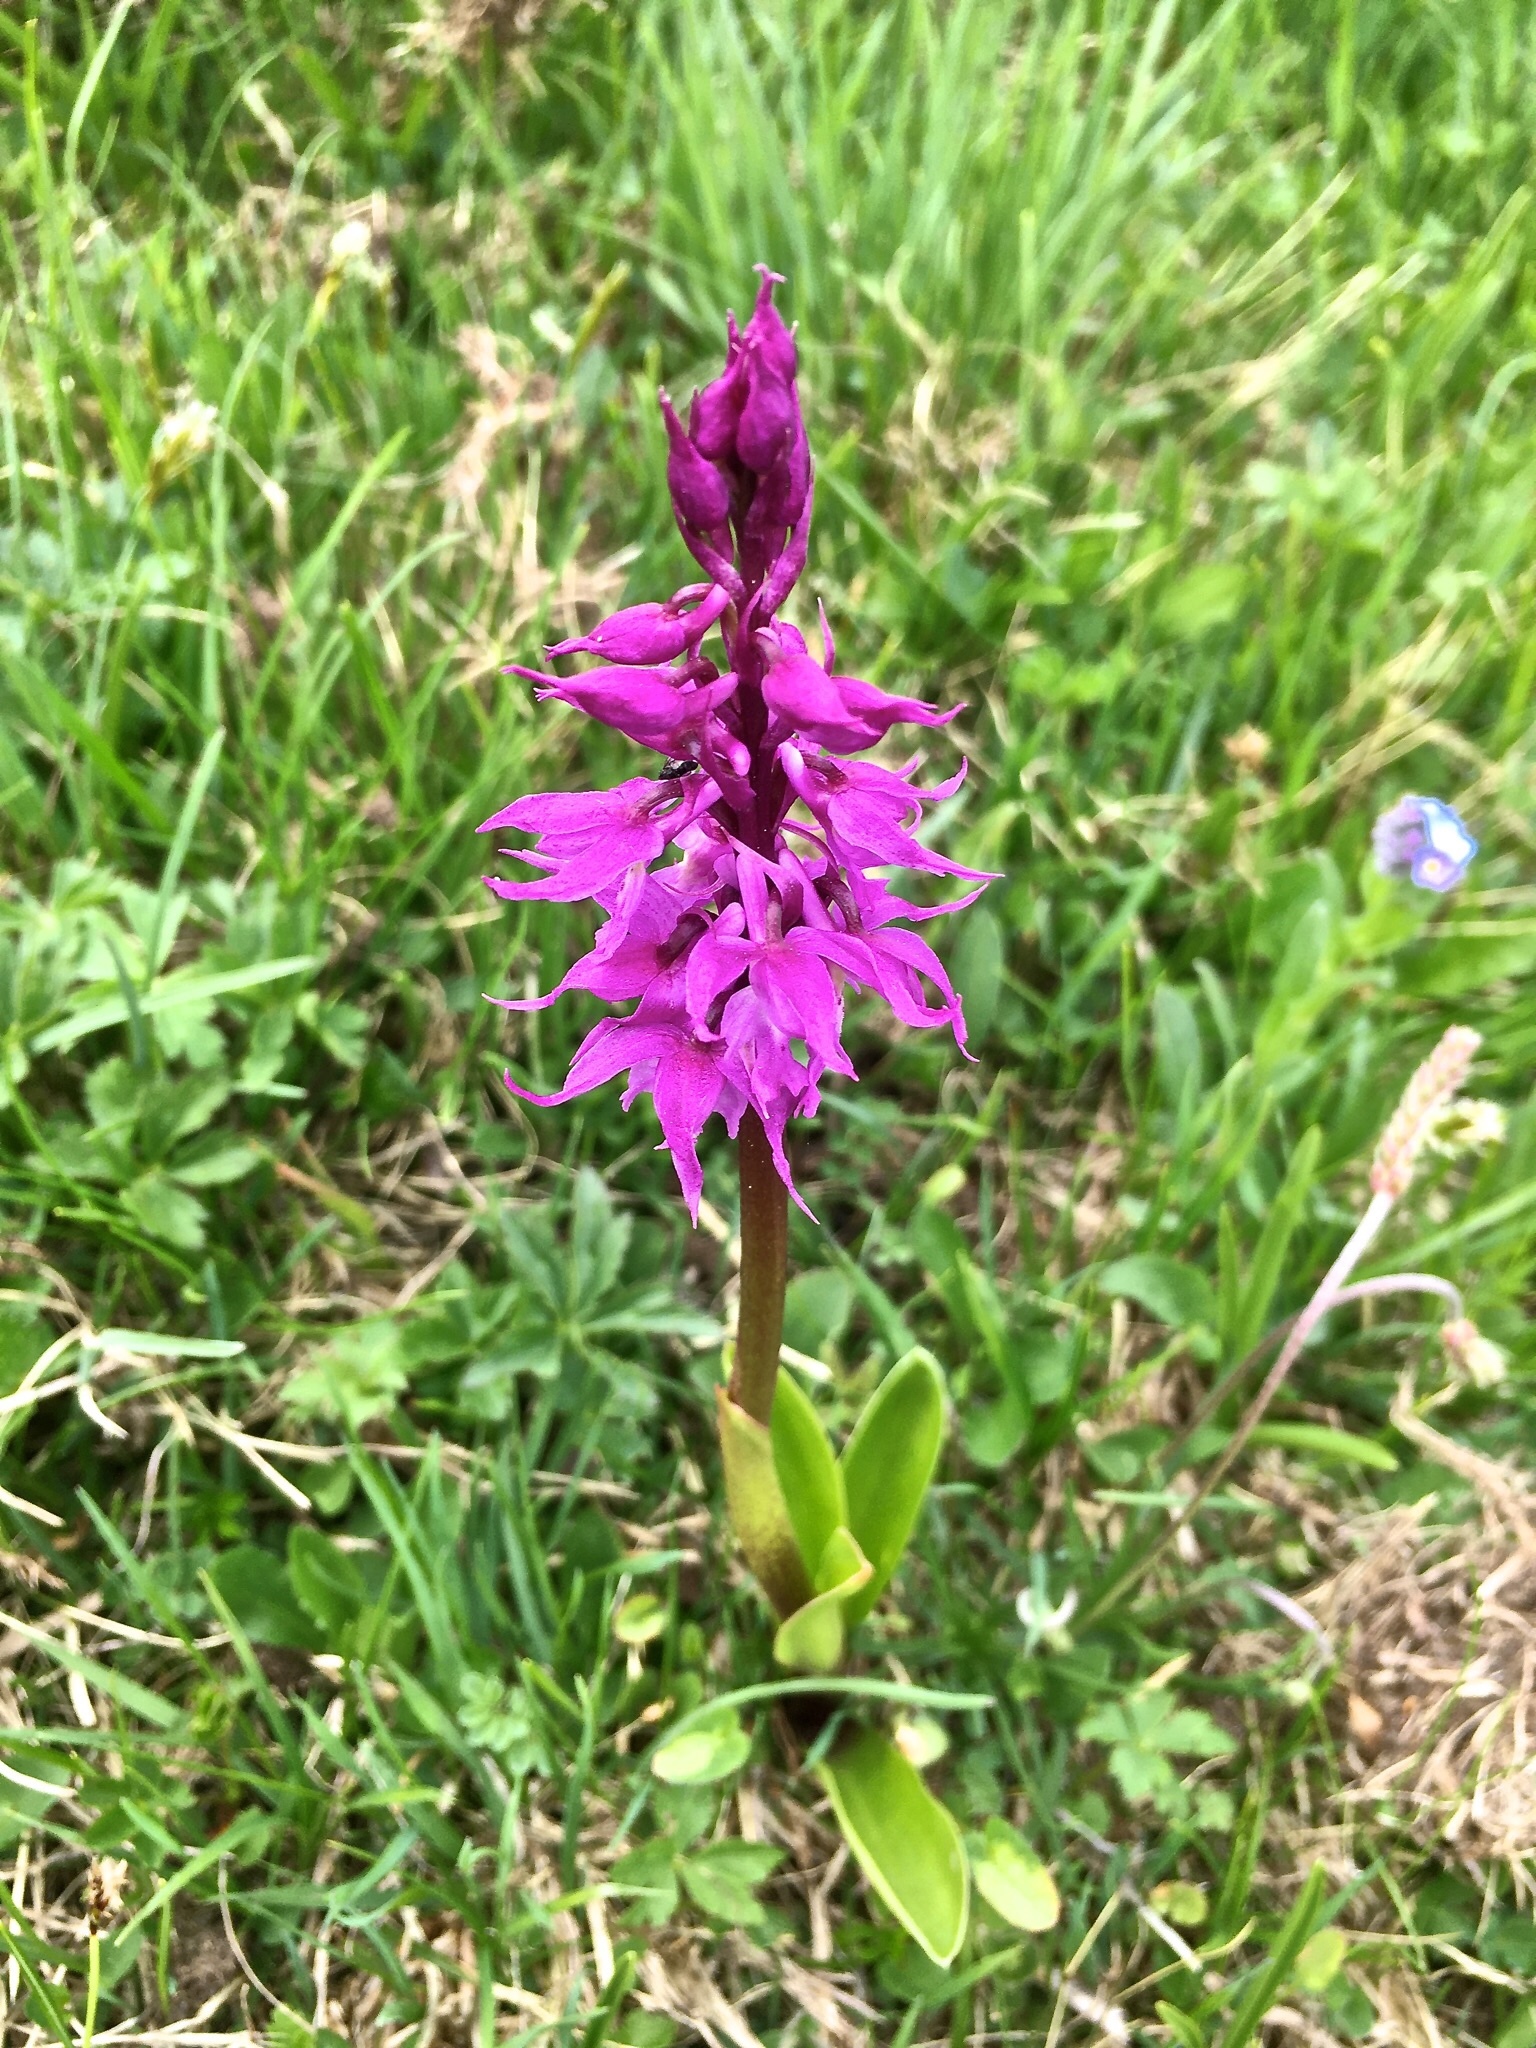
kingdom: Plantae
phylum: Tracheophyta
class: Liliopsida
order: Asparagales
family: Orchidaceae
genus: Orchis
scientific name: Orchis mascula
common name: Early-purple orchid
